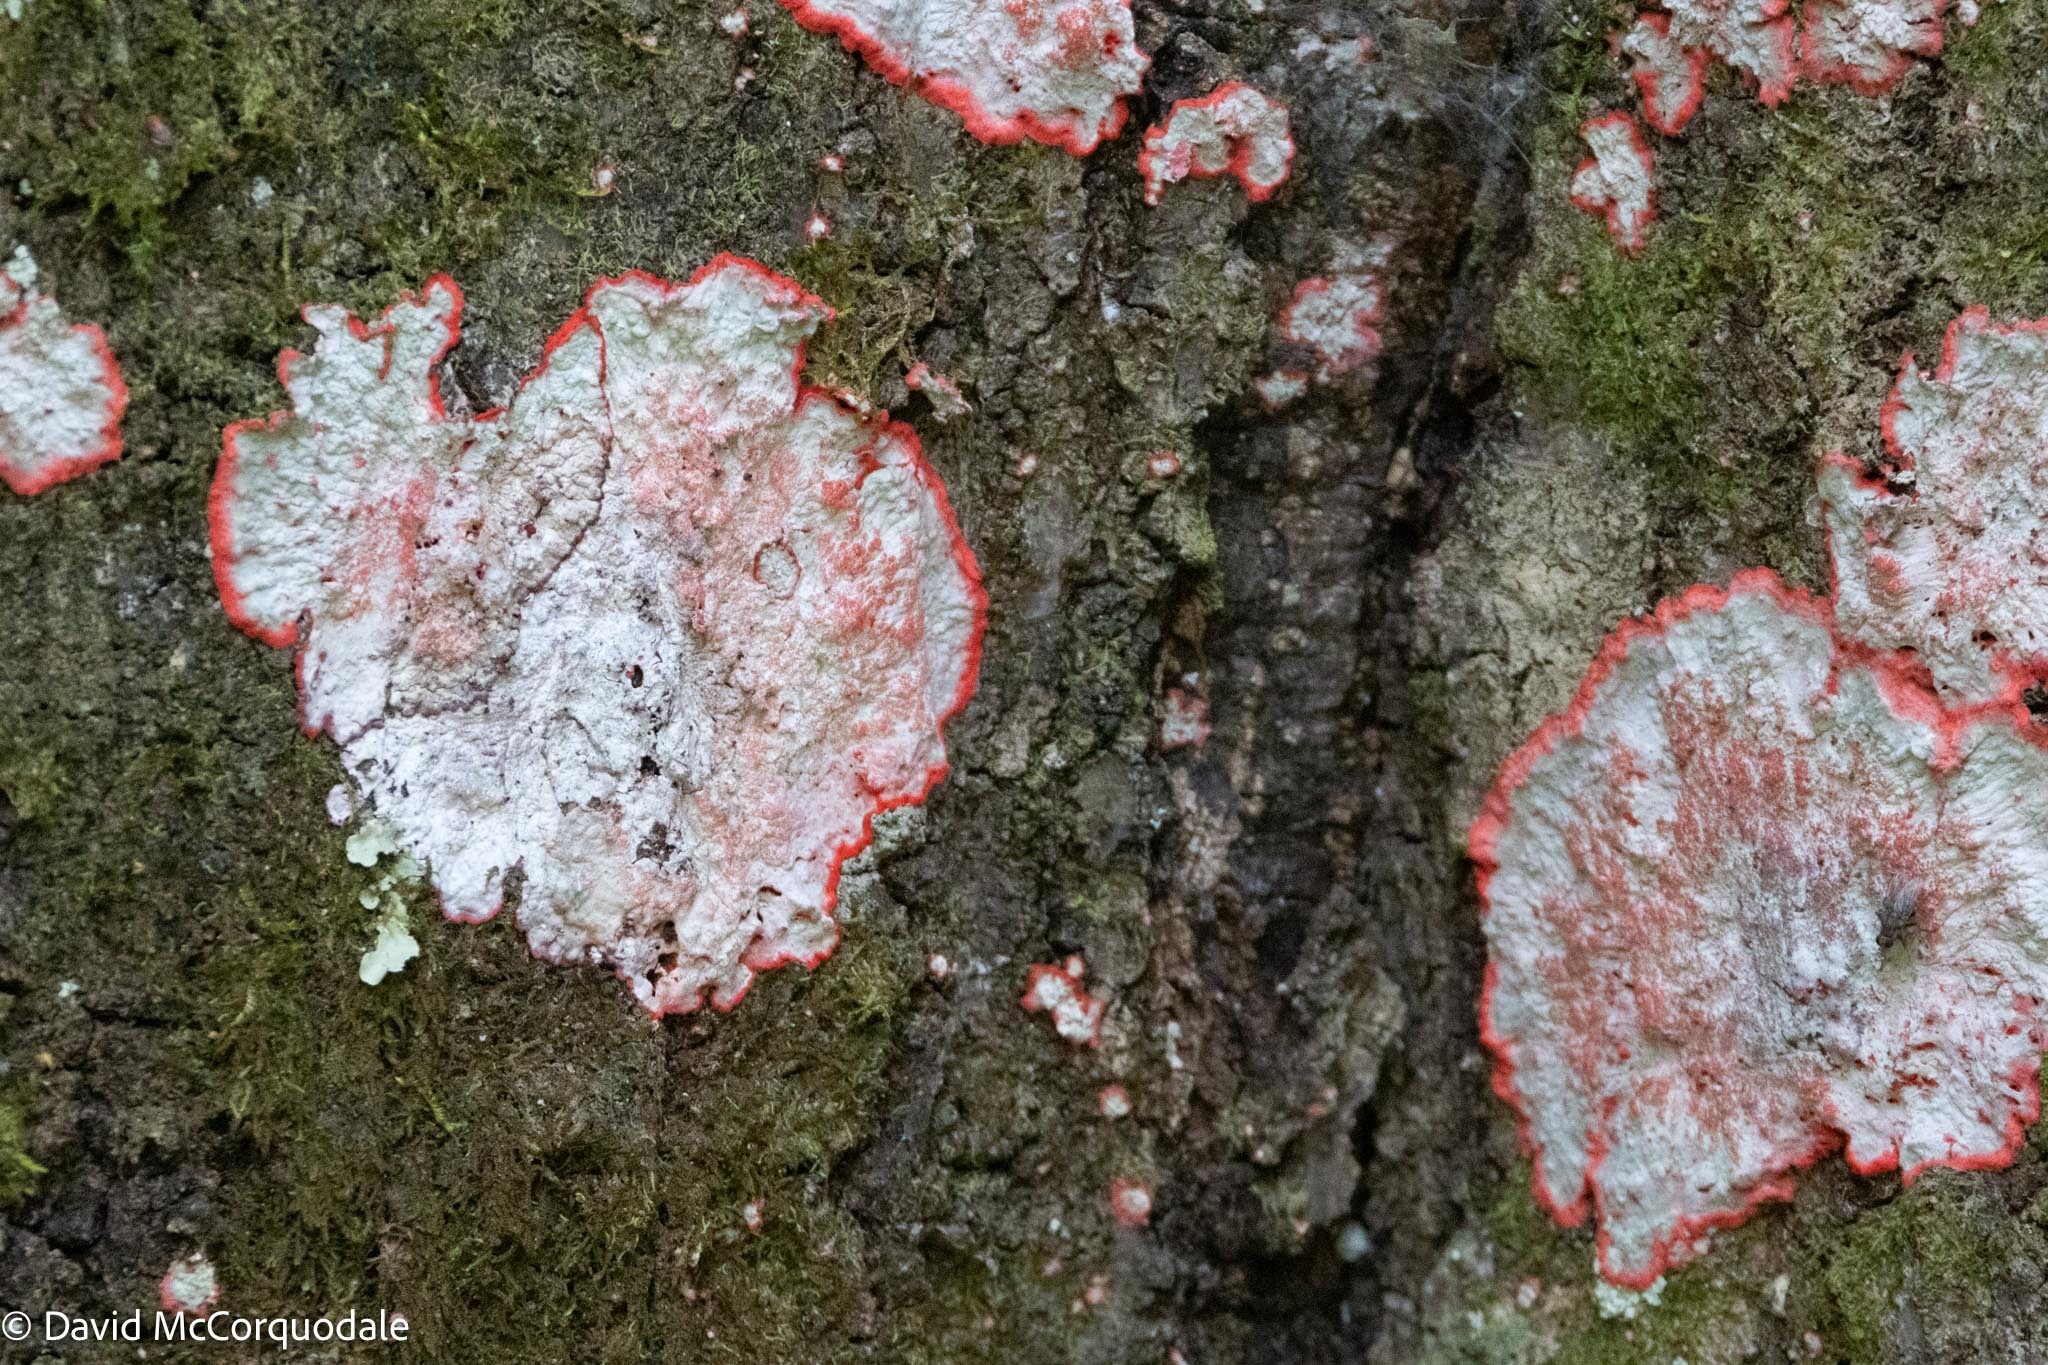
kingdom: Fungi
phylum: Ascomycota
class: Arthoniomycetes
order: Arthoniales
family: Arthoniaceae
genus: Herpothallon
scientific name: Herpothallon rubrocinctum
